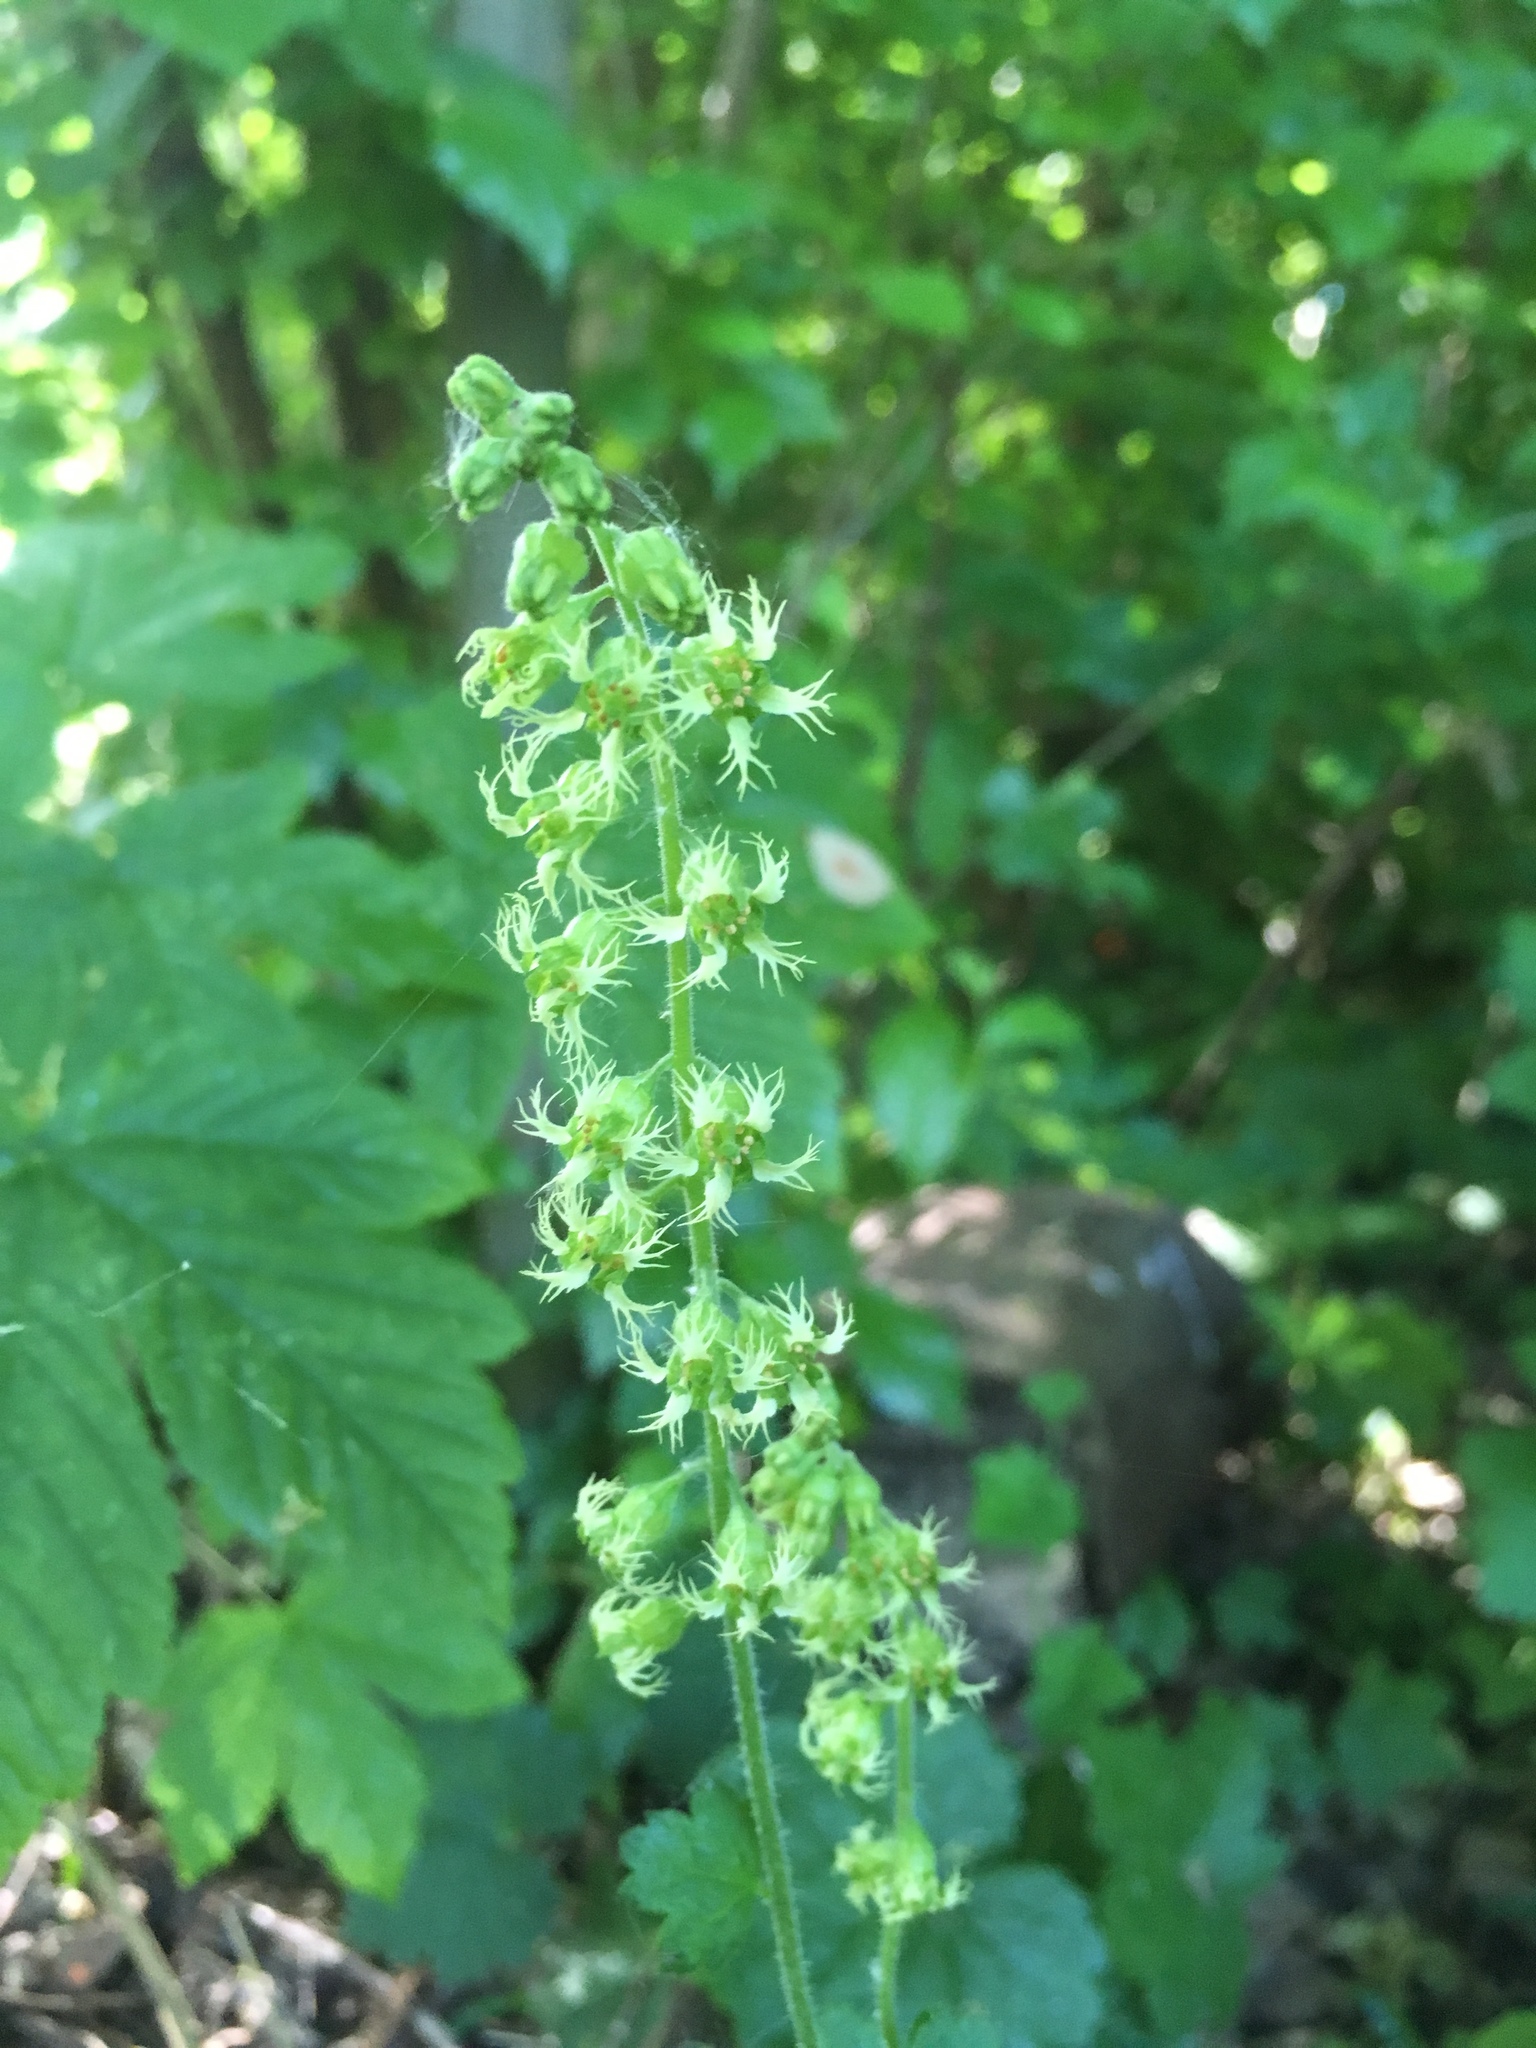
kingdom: Plantae
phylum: Tracheophyta
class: Magnoliopsida
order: Saxifragales
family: Saxifragaceae
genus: Tellima
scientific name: Tellima grandiflora
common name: Fringecups
